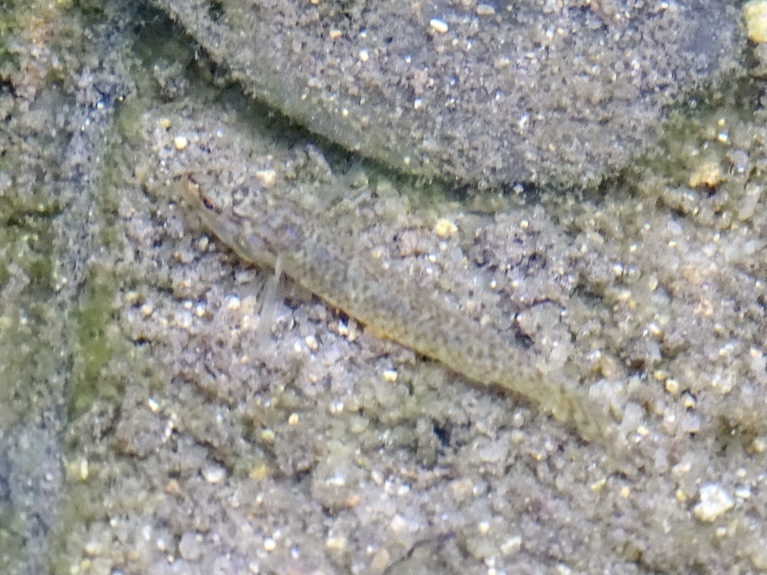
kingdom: Animalia
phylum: Chordata
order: Perciformes
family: Gobiidae
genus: Rhinogobius
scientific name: Rhinogobius duospilus
